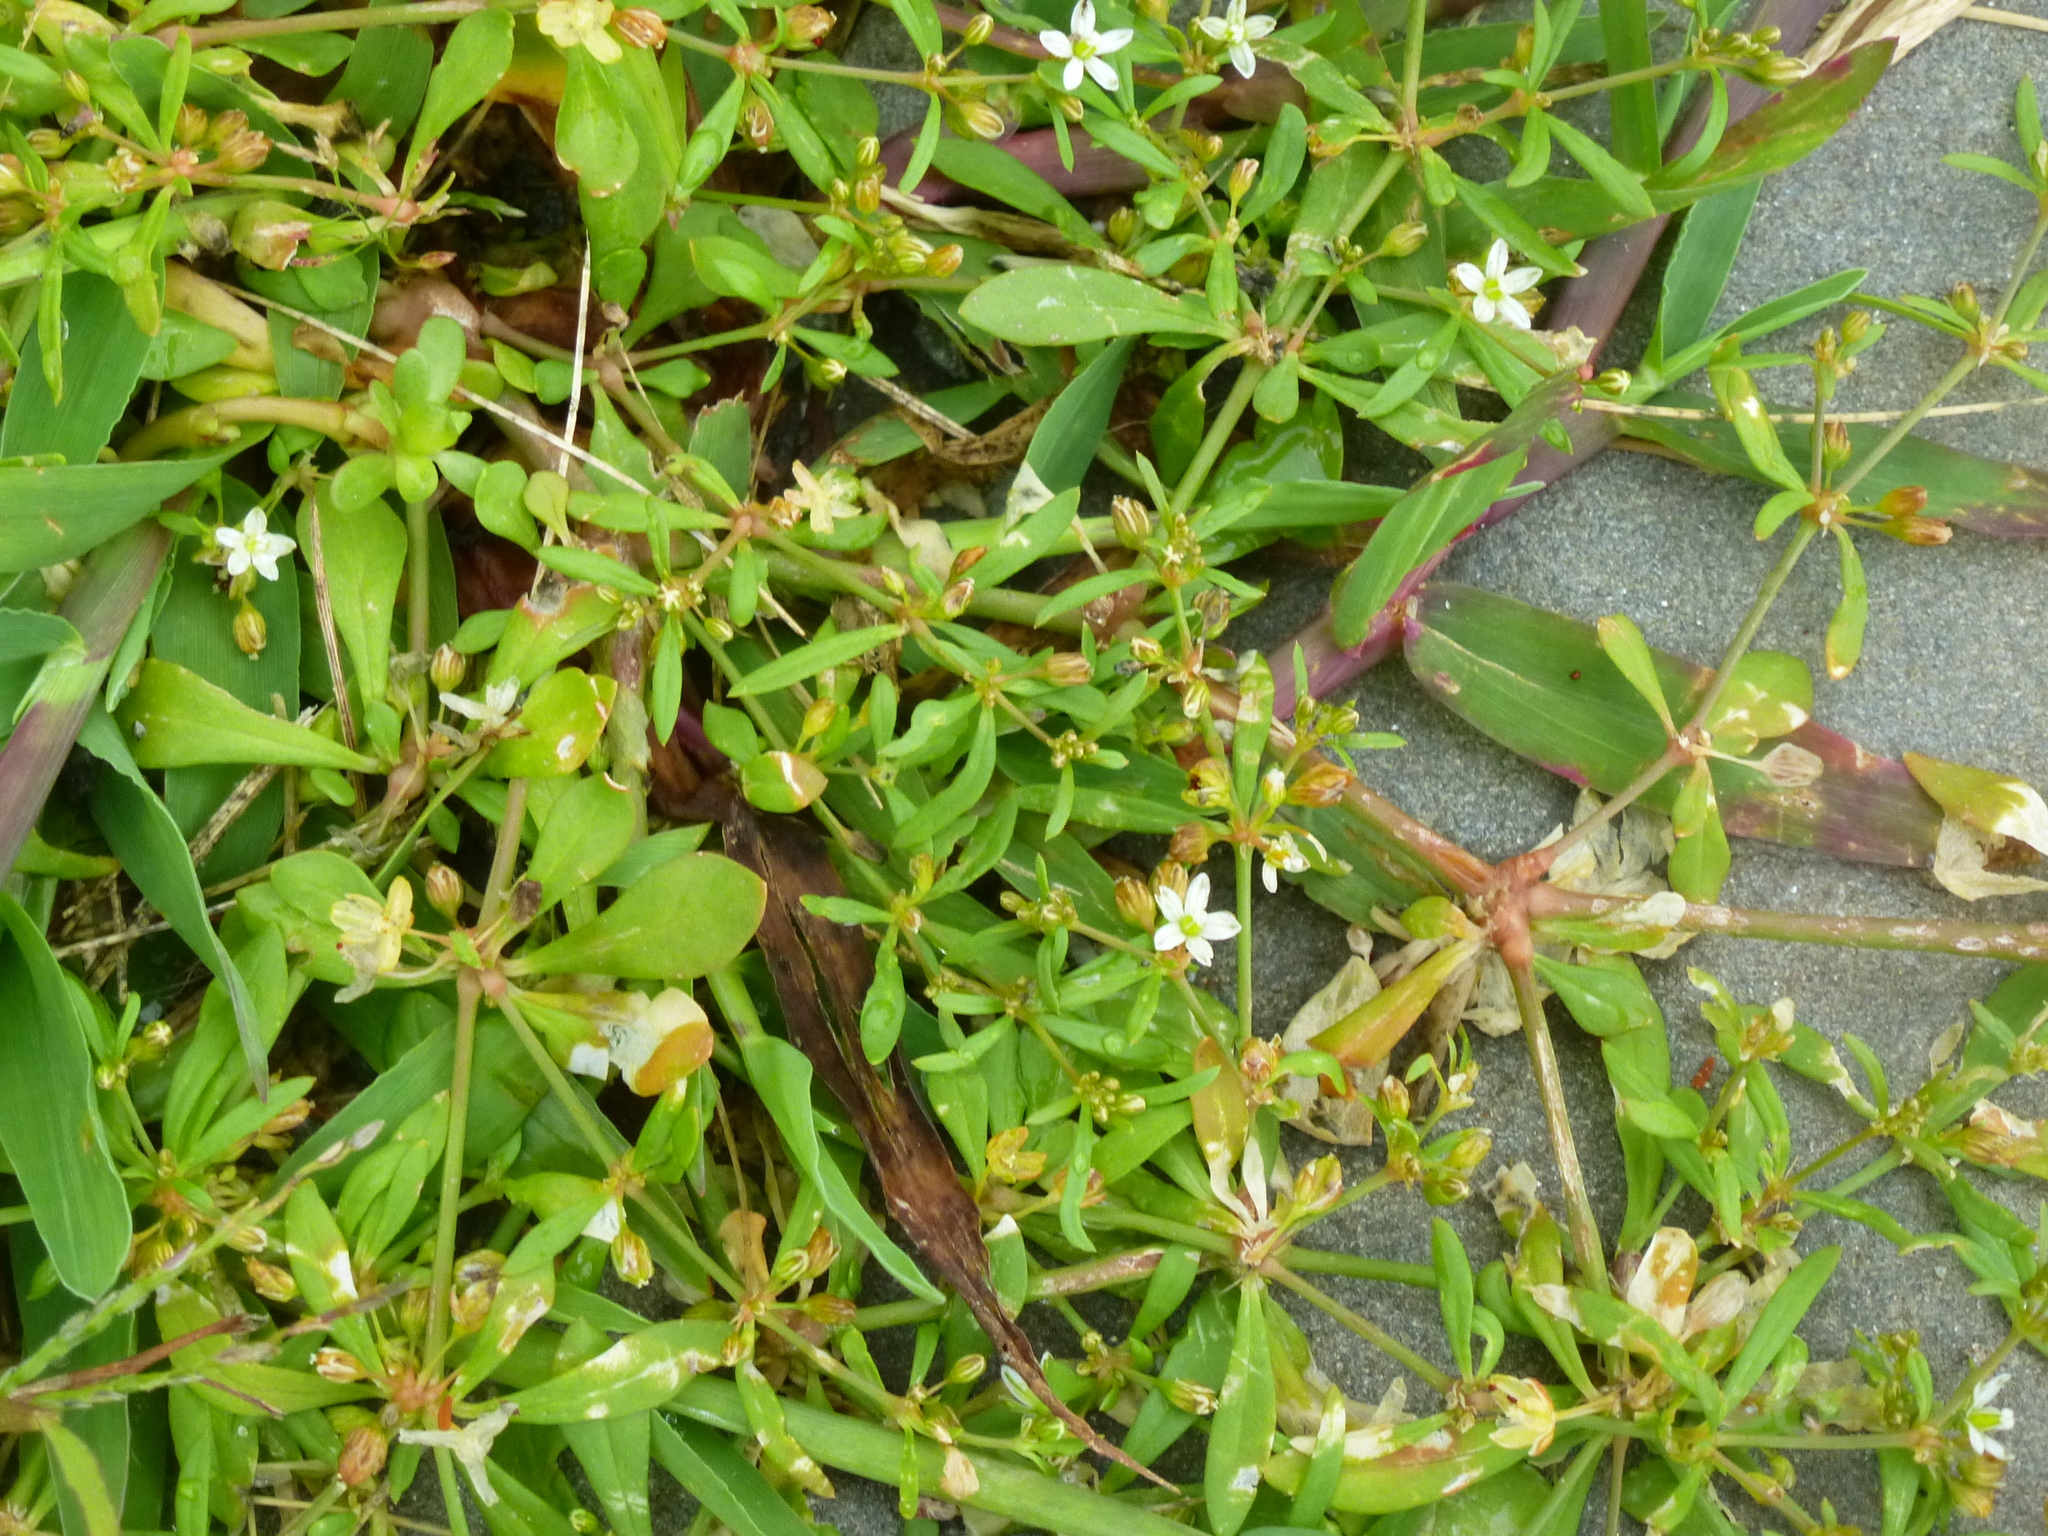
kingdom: Plantae
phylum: Tracheophyta
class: Magnoliopsida
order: Caryophyllales
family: Molluginaceae
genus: Mollugo
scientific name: Mollugo verticillata
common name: Green carpetweed
